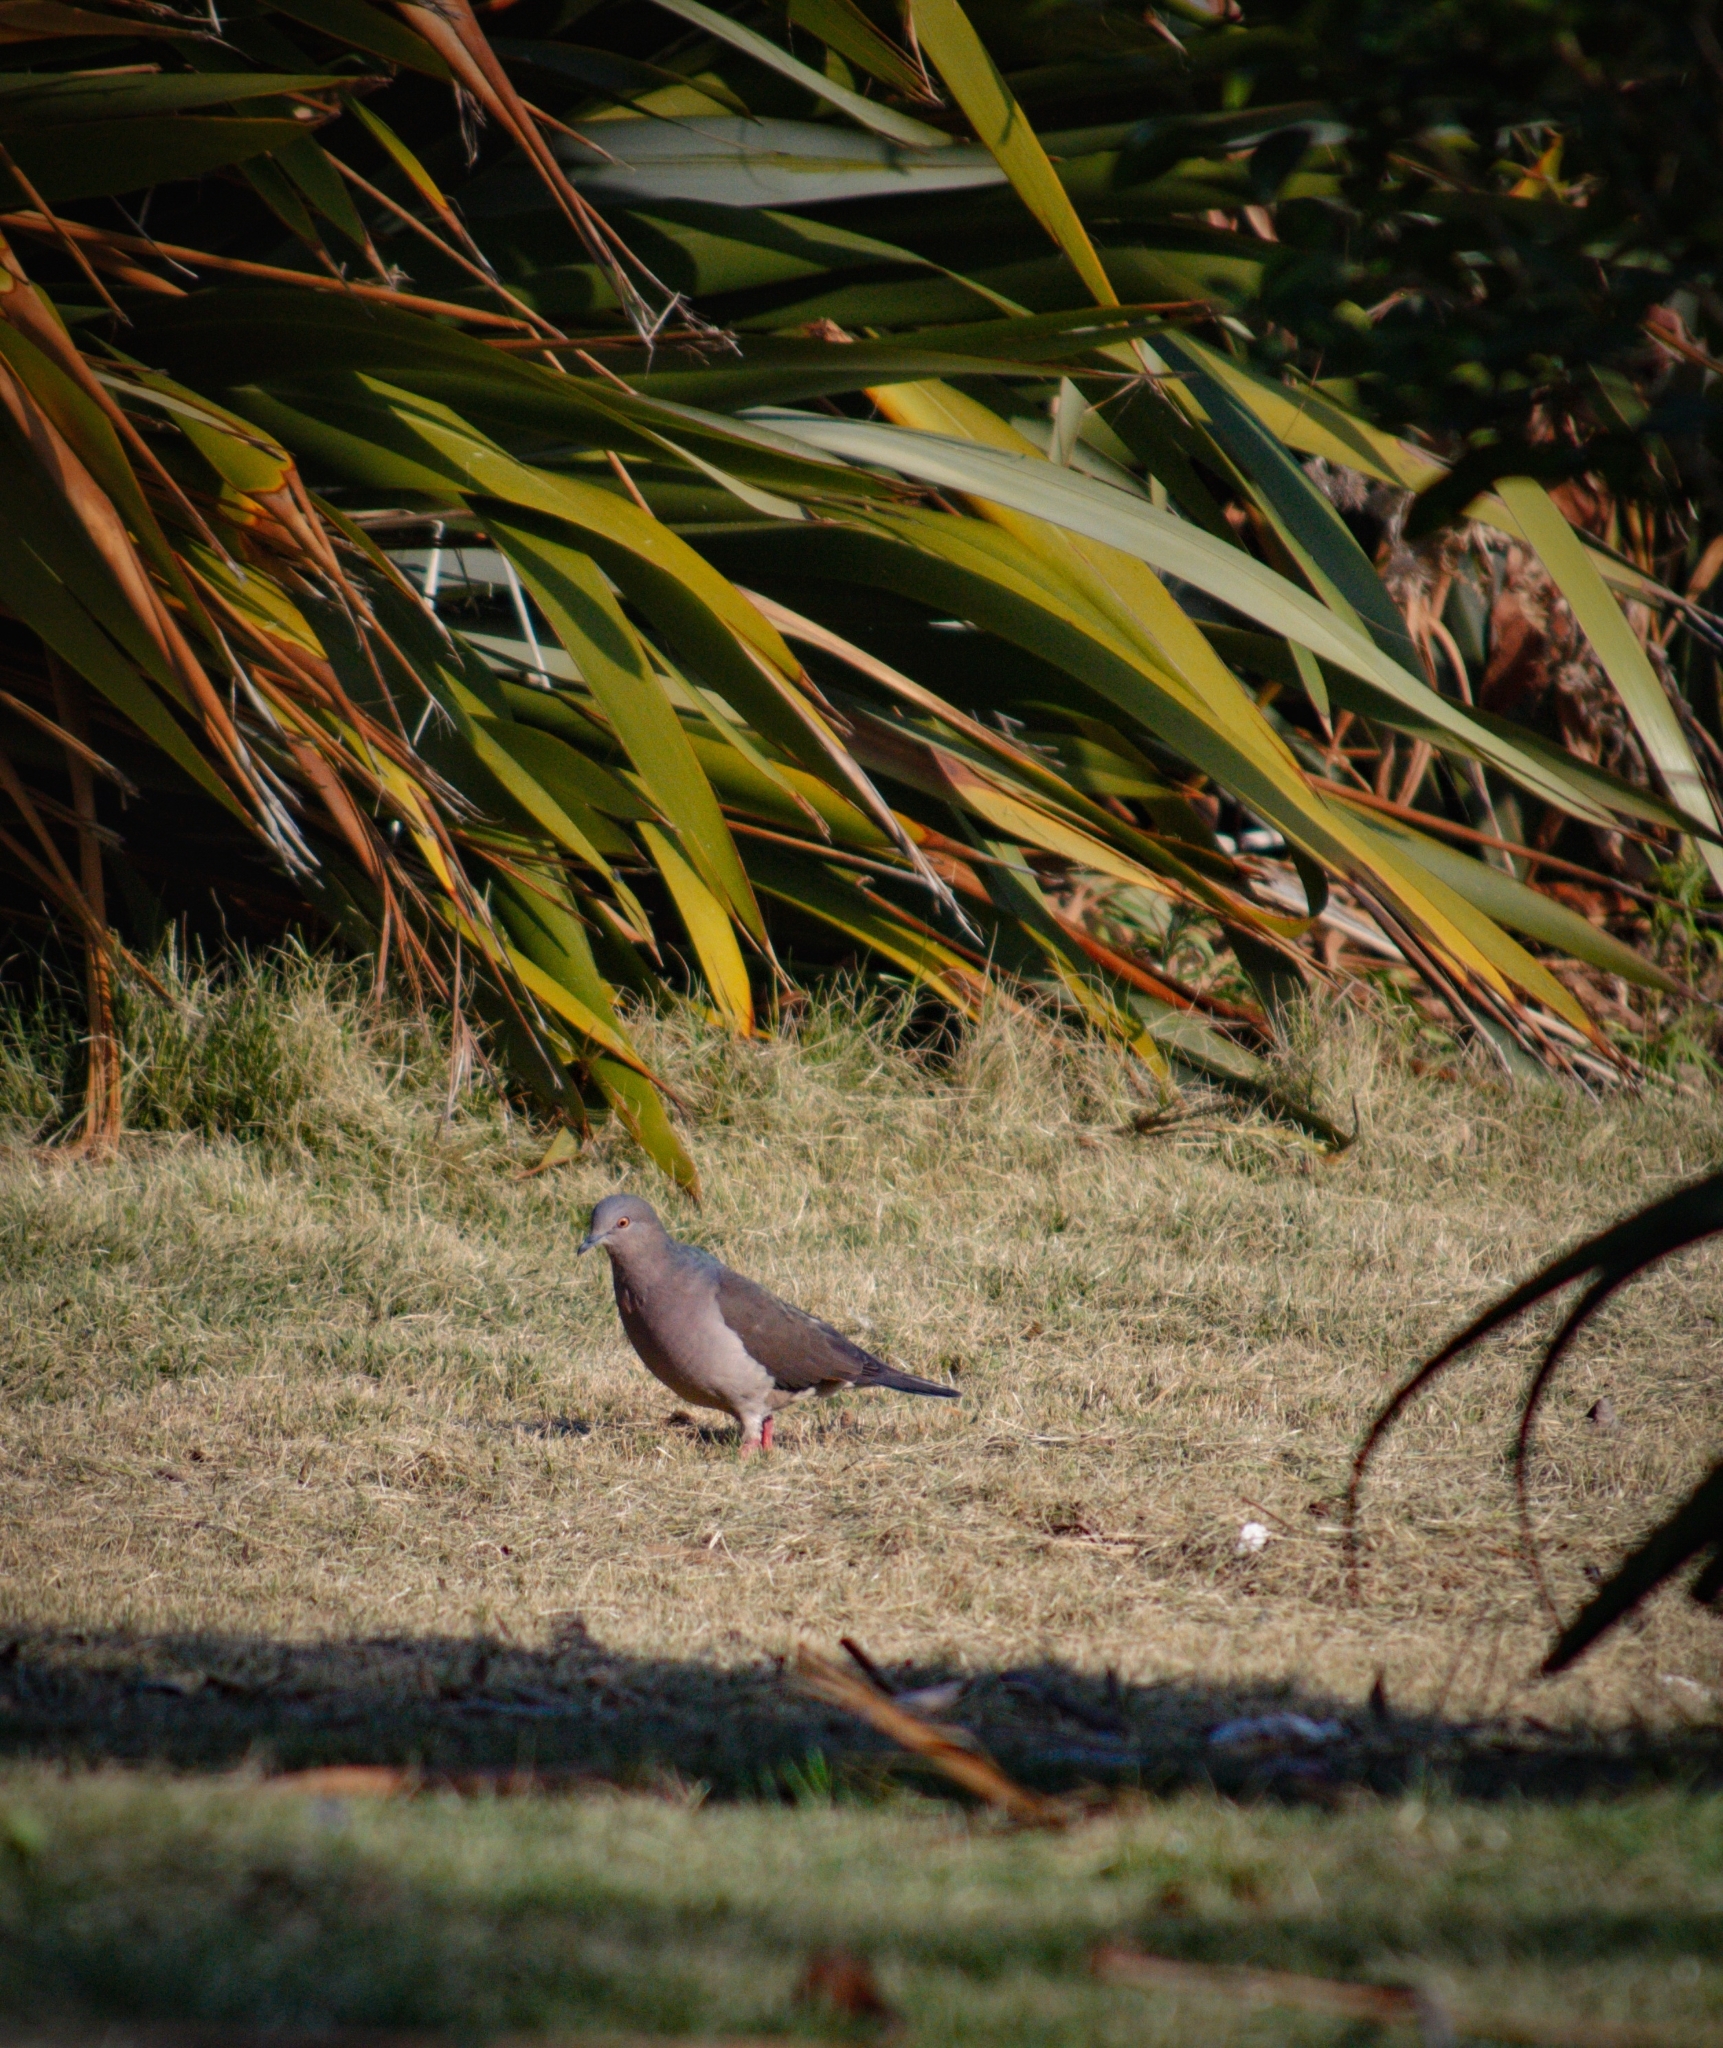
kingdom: Animalia
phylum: Chordata
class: Aves
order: Columbiformes
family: Columbidae
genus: Leptotila
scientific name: Leptotila verreauxi
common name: White-tipped dove
